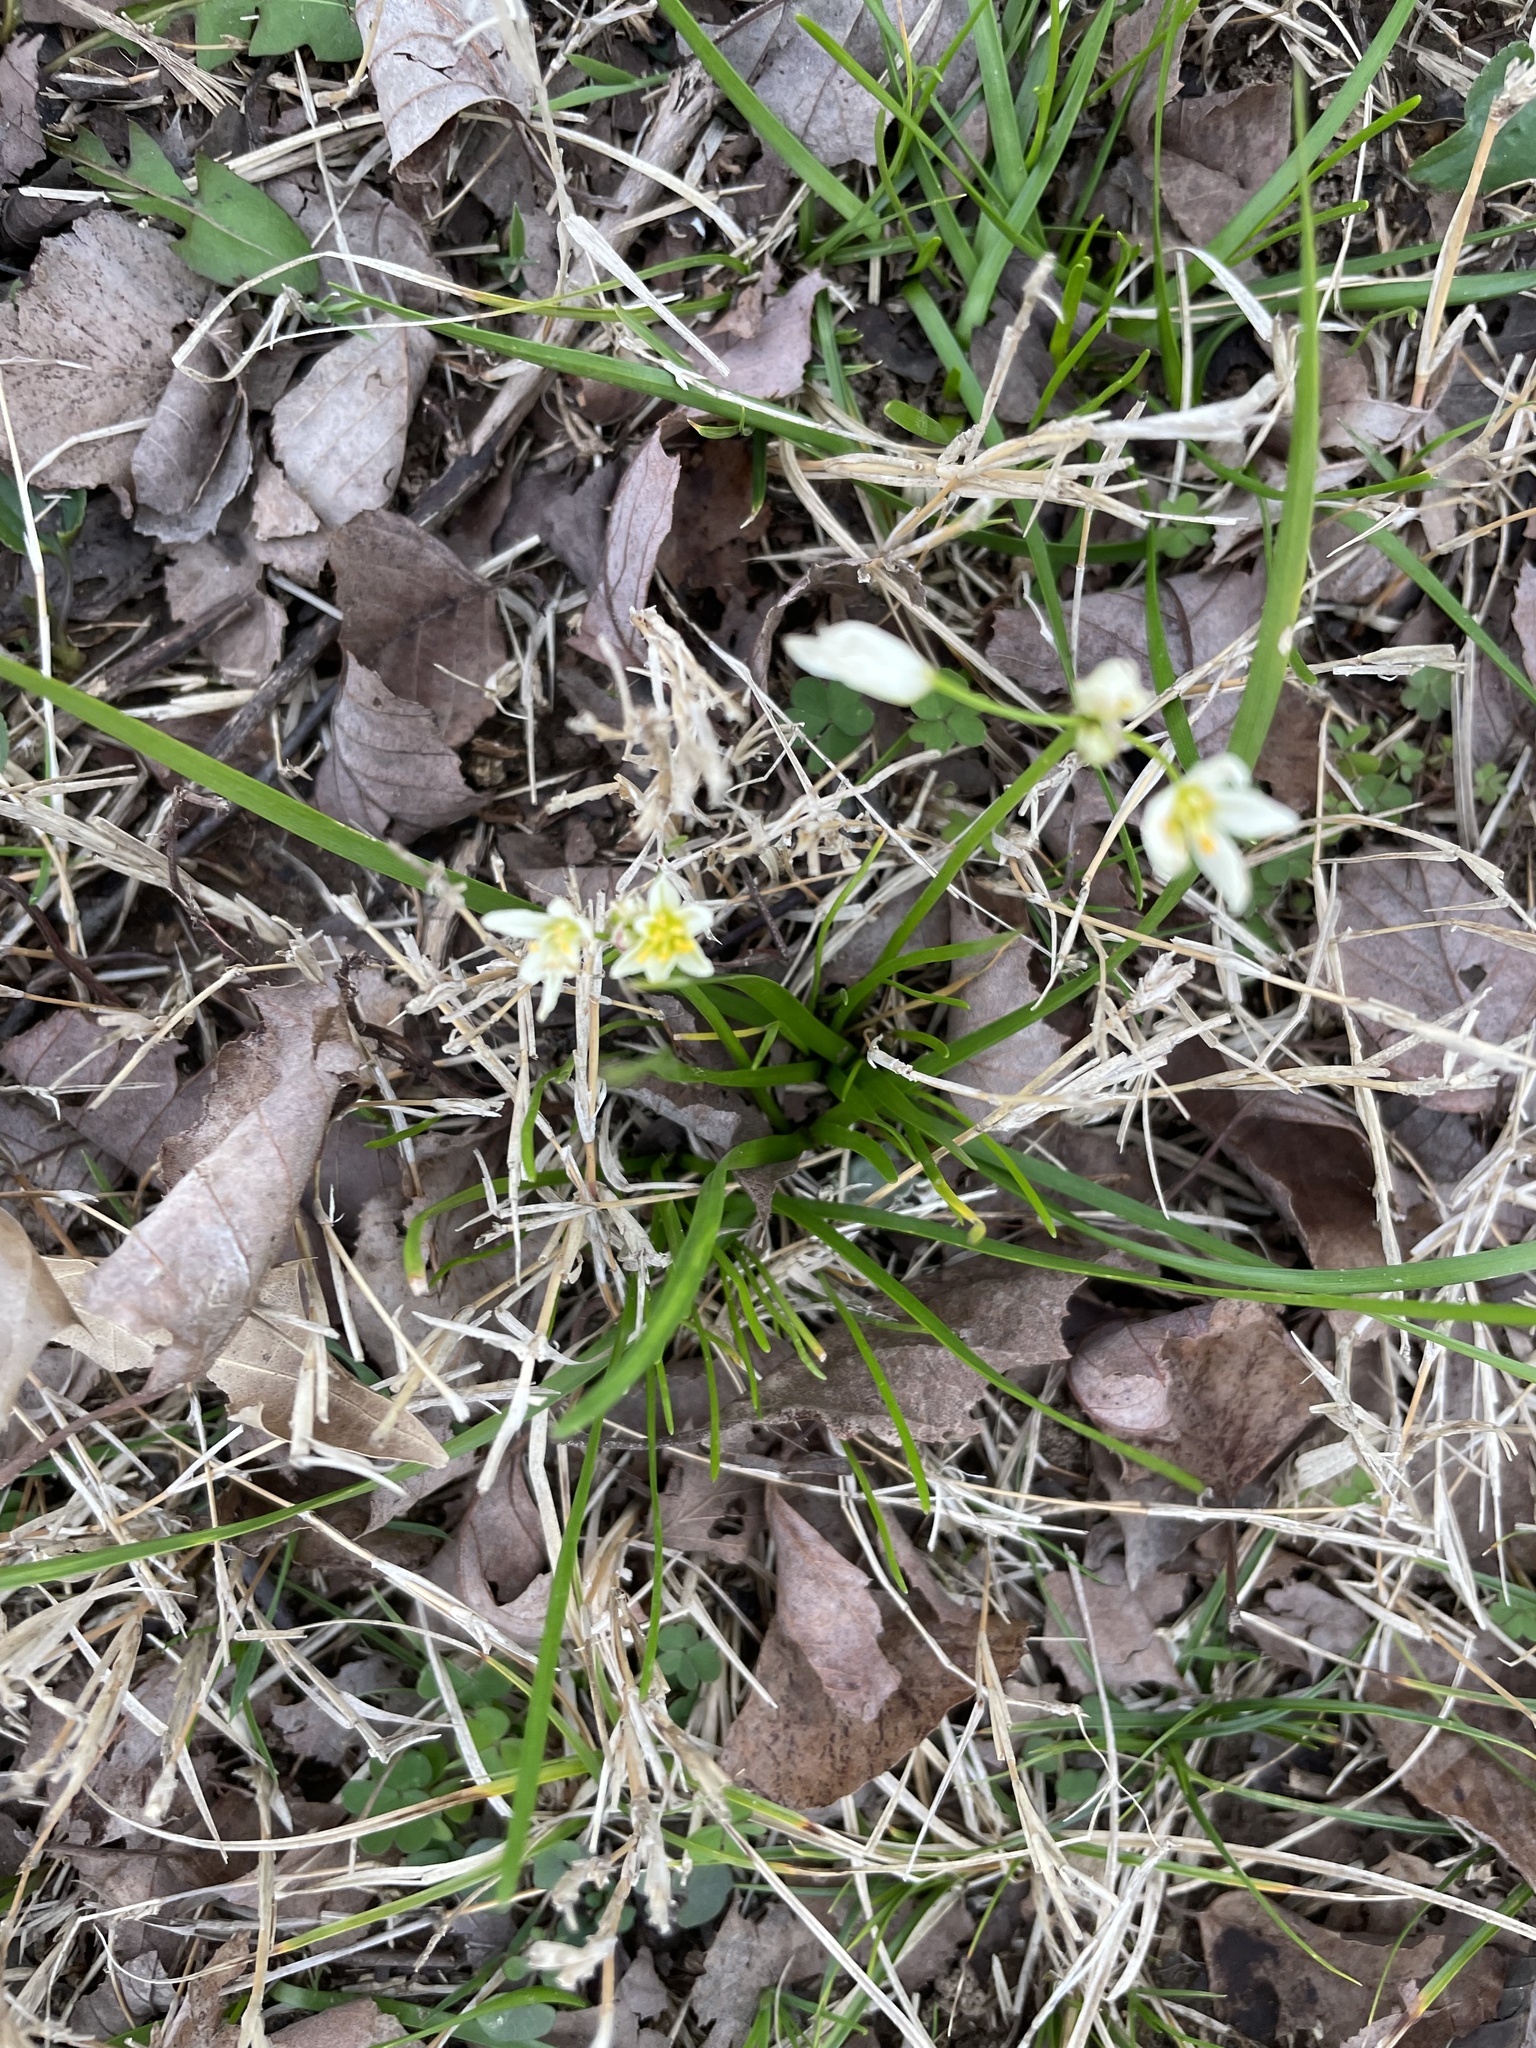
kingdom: Plantae
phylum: Tracheophyta
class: Liliopsida
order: Asparagales
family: Amaryllidaceae
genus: Nothoscordum
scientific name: Nothoscordum bivalve
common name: Crow-poison
